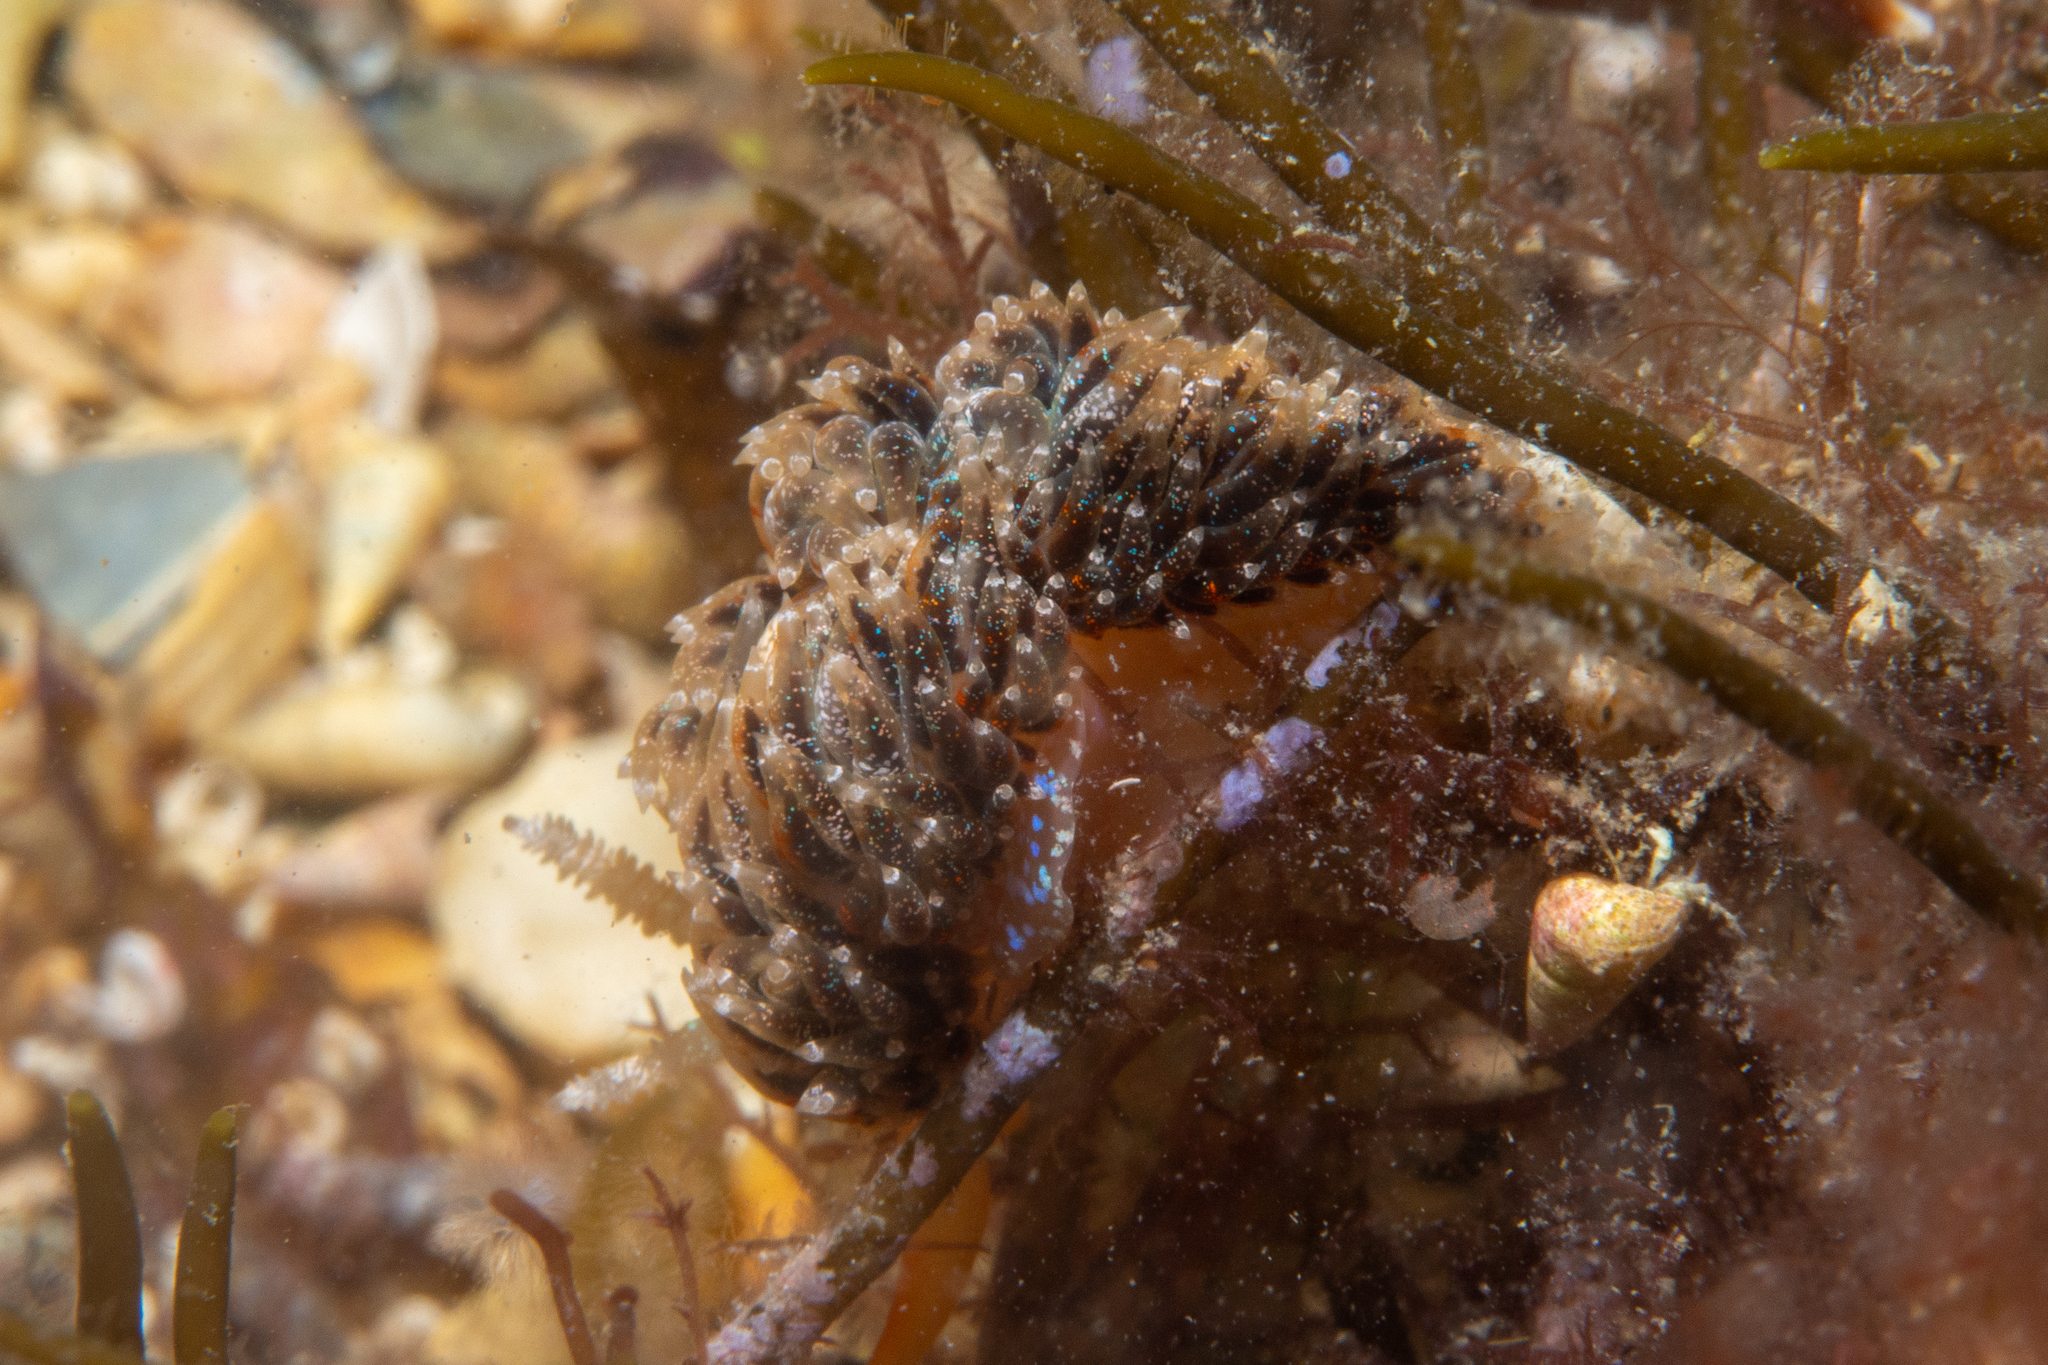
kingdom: Animalia
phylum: Mollusca
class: Gastropoda
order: Nudibranchia
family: Facelinidae
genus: Austraeolis
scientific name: Austraeolis ornata
